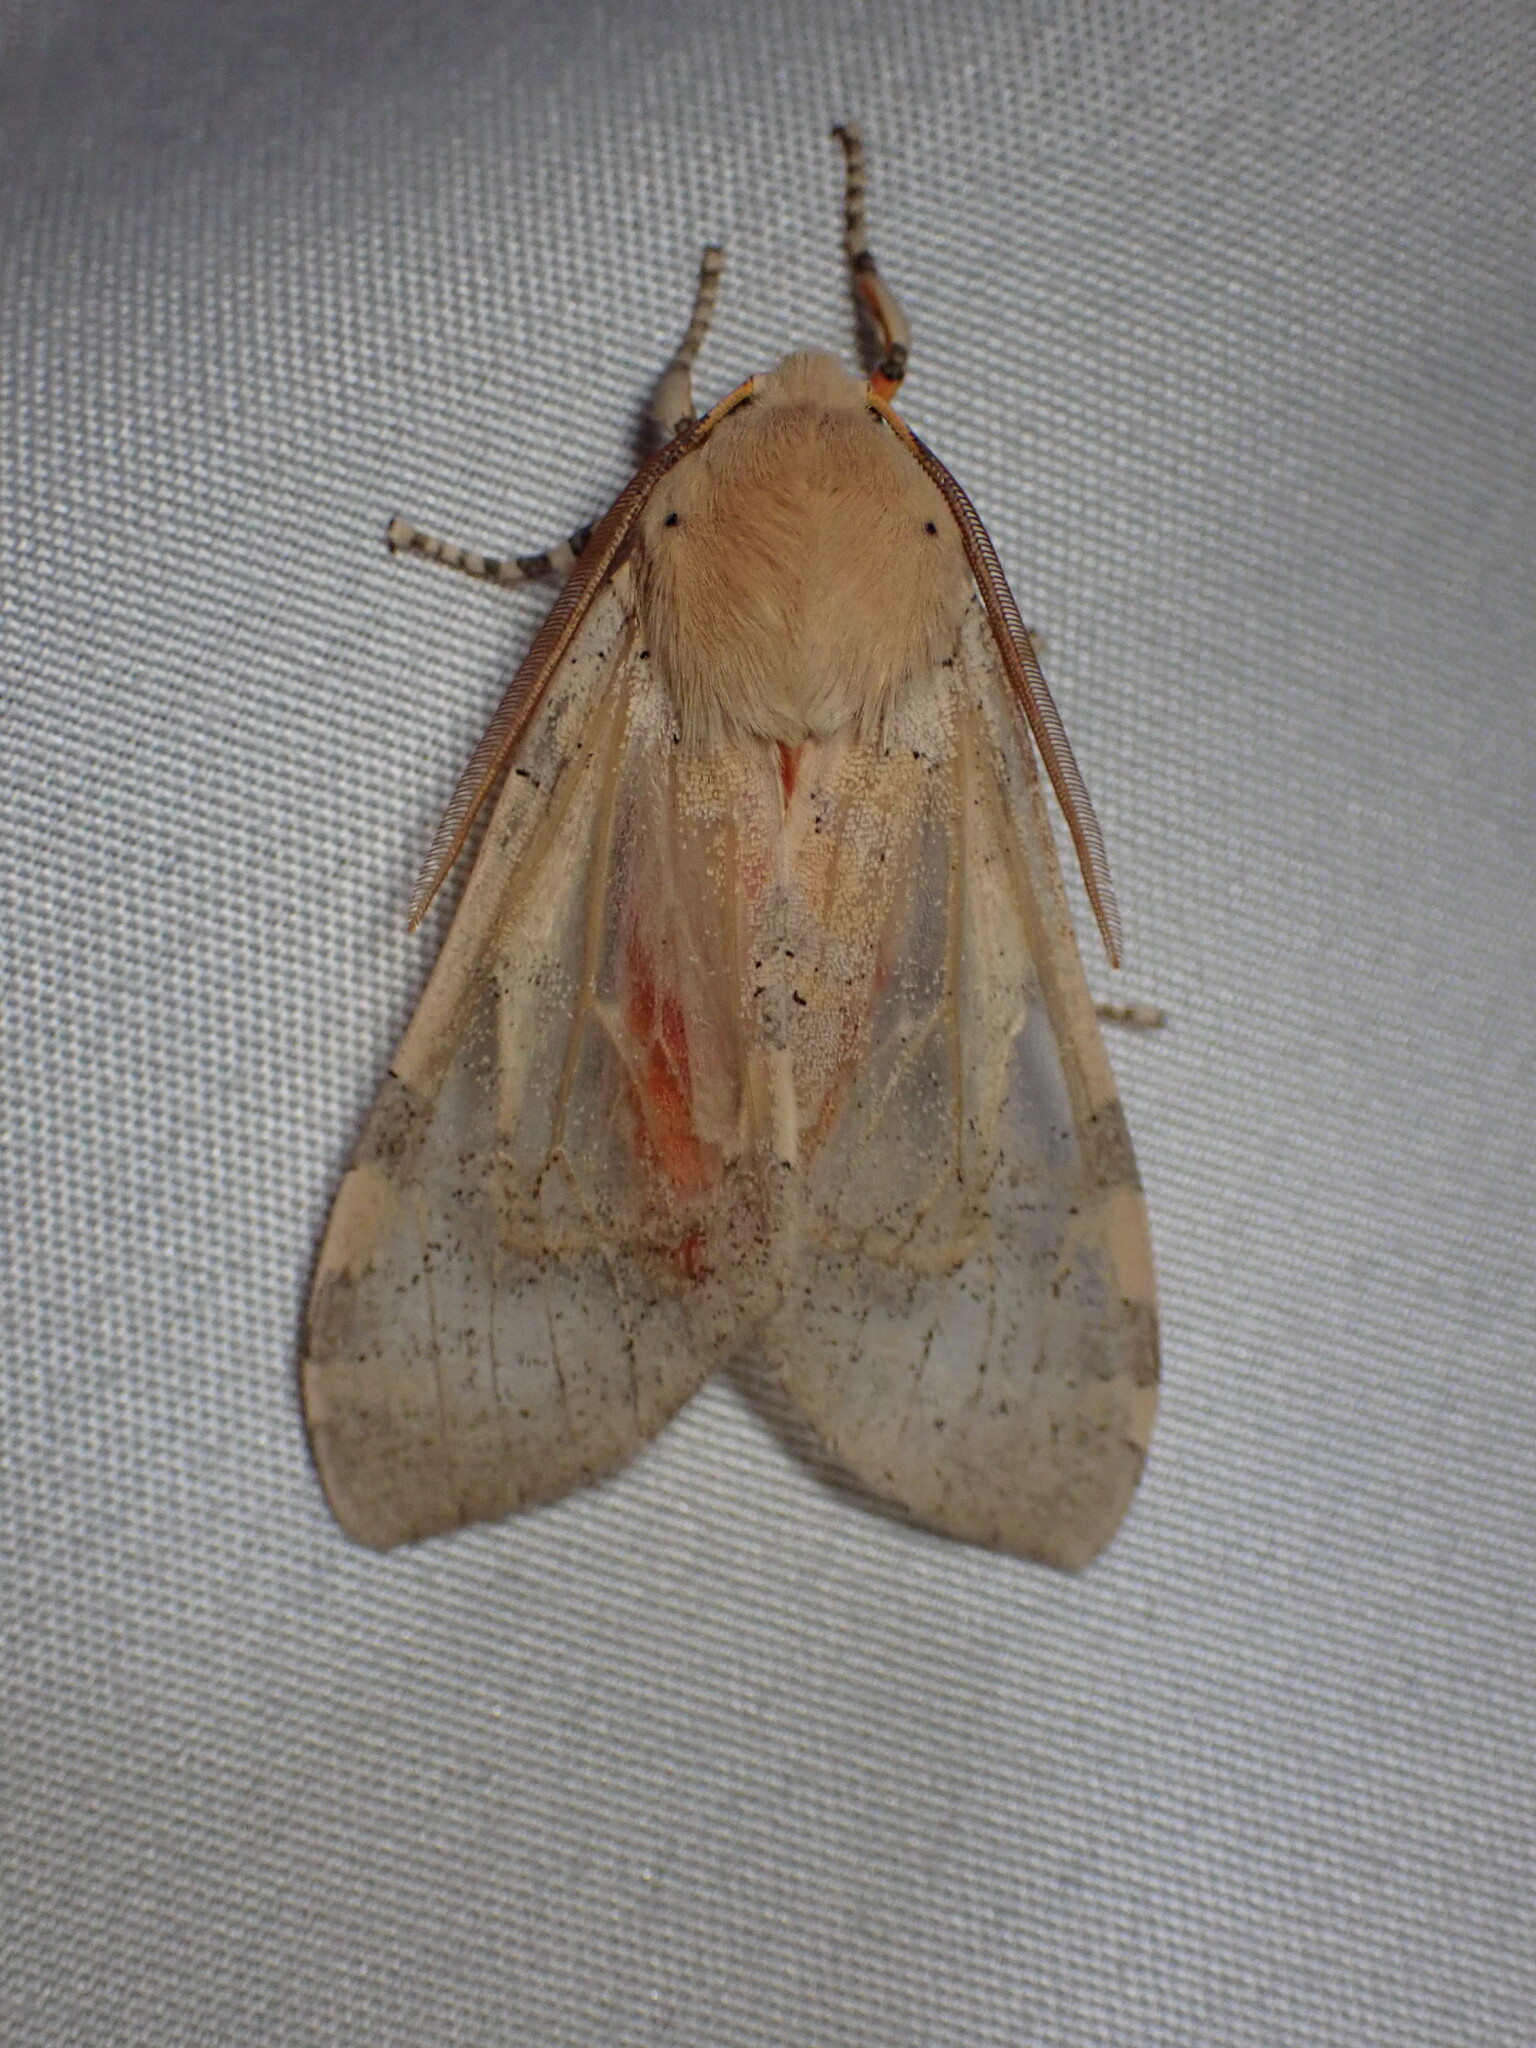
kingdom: Animalia
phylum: Arthropoda
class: Insecta
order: Lepidoptera
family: Erebidae
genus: Hemihyalea
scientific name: Hemihyalea edwardsii
